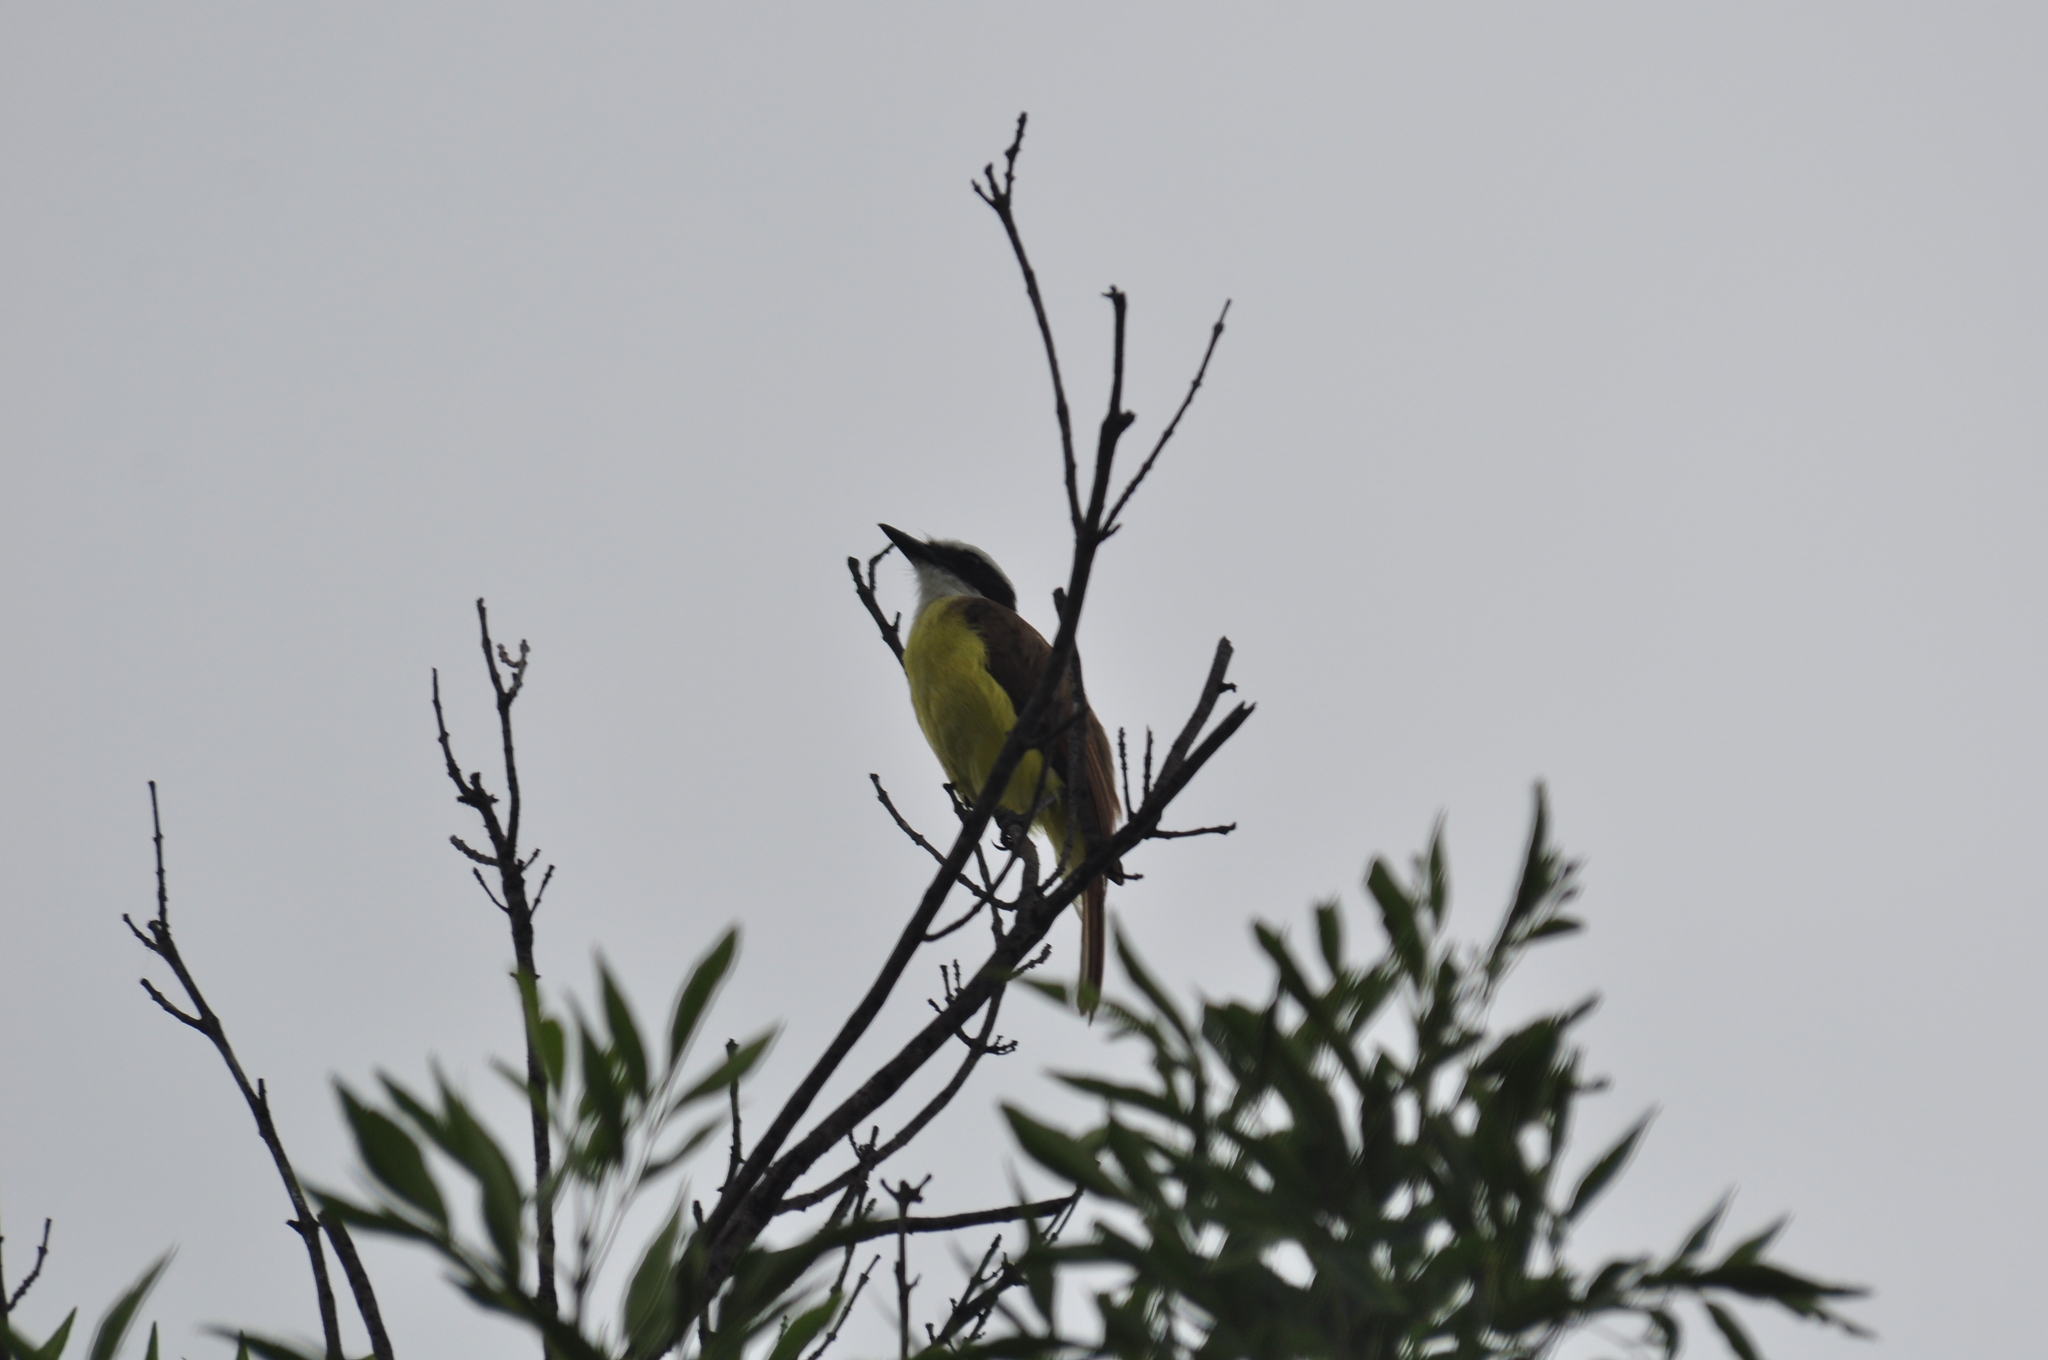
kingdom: Animalia
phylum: Chordata
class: Aves
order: Passeriformes
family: Tyrannidae
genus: Pitangus
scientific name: Pitangus sulphuratus
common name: Great kiskadee
